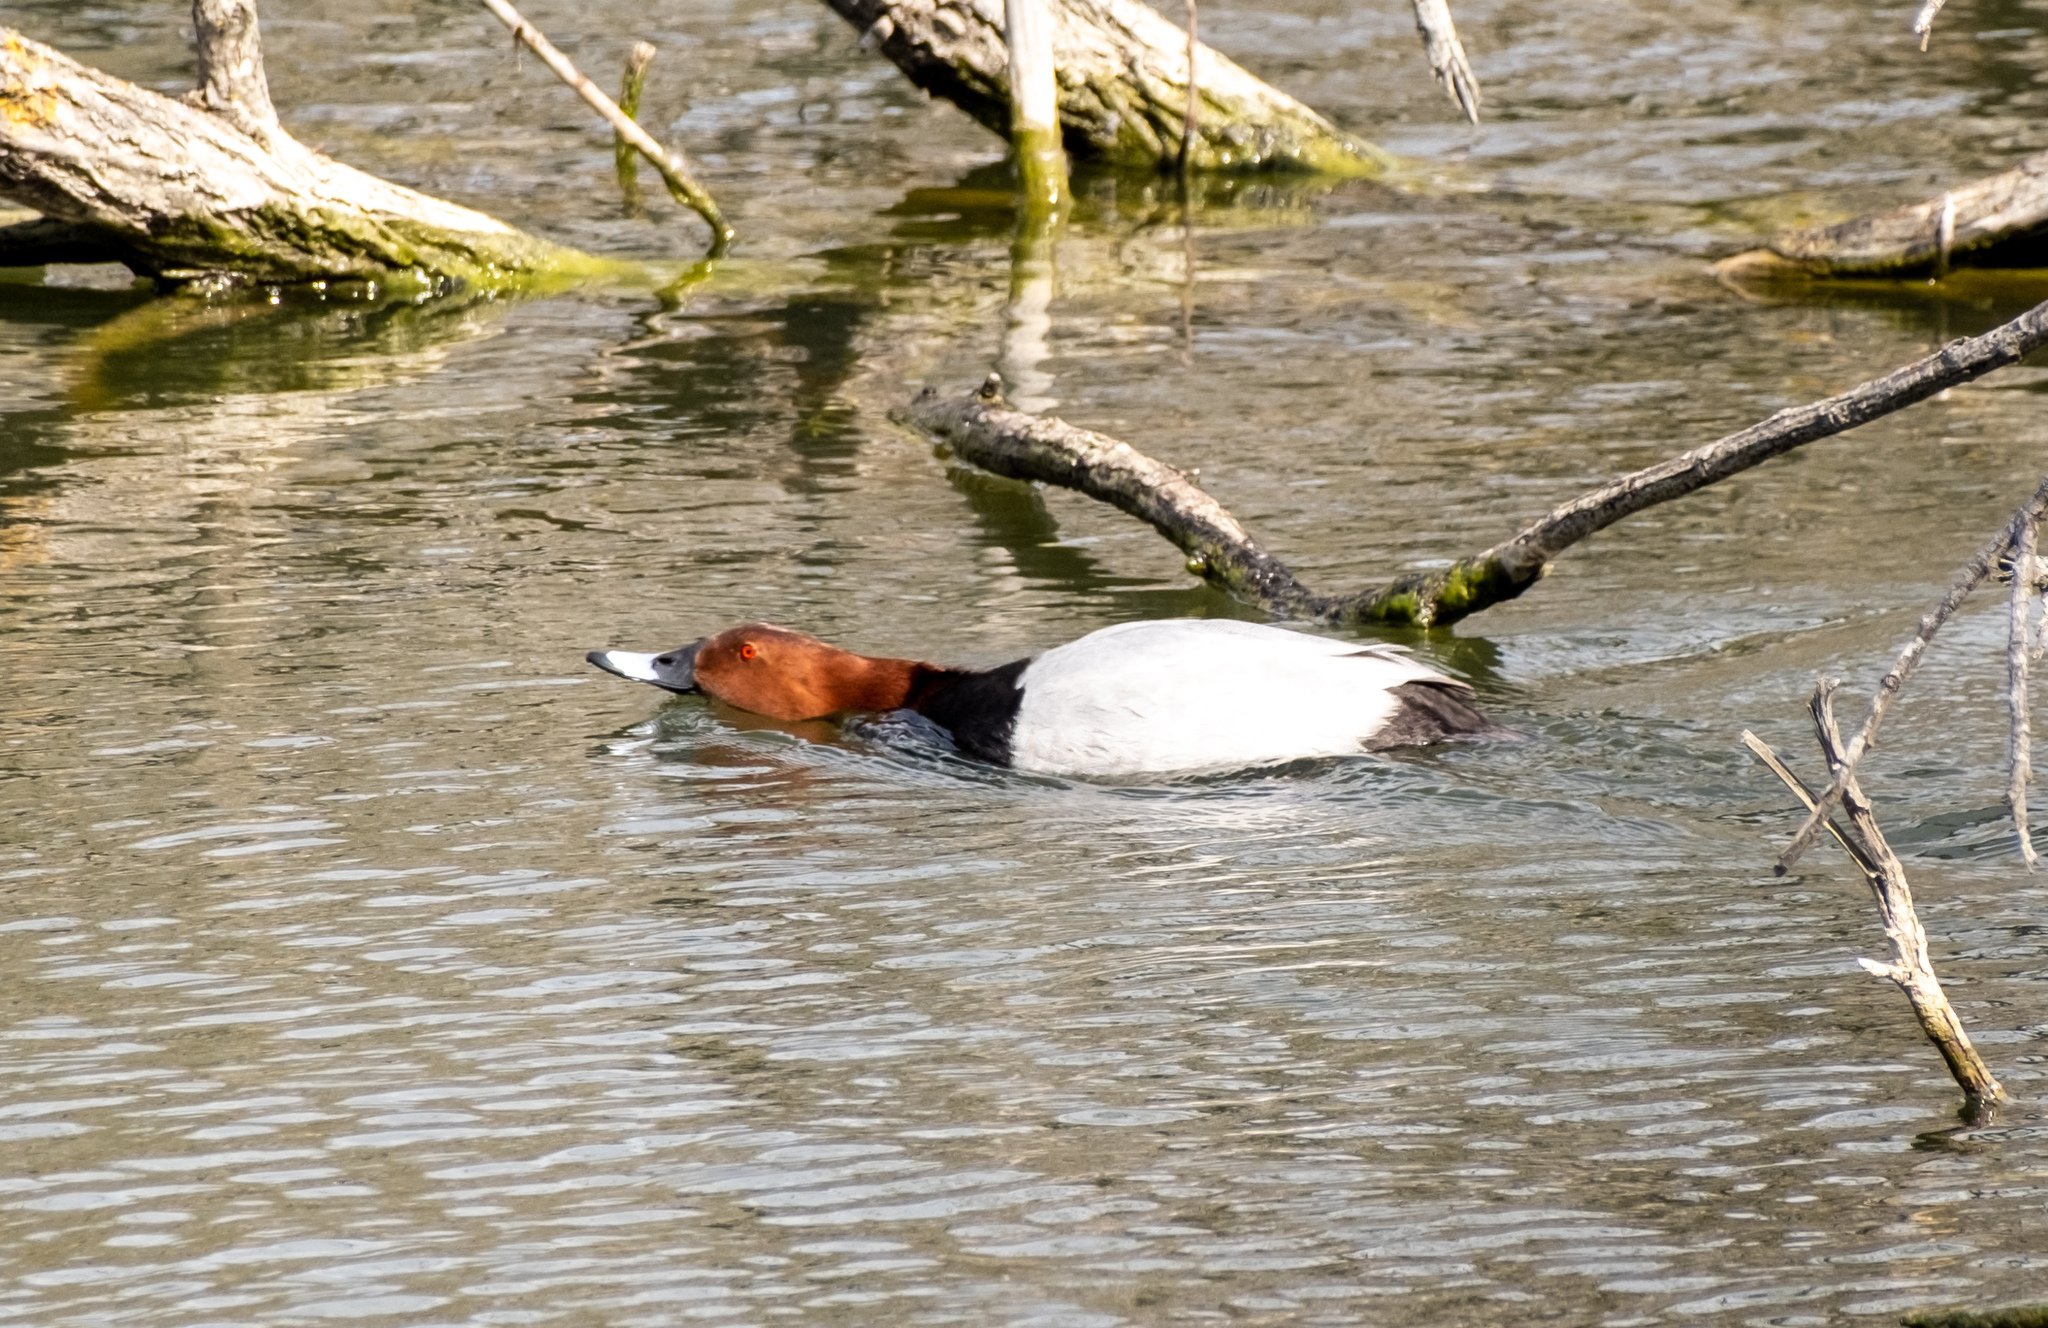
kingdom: Animalia
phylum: Chordata
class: Aves
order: Anseriformes
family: Anatidae
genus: Aythya
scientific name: Aythya ferina
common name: Common pochard
